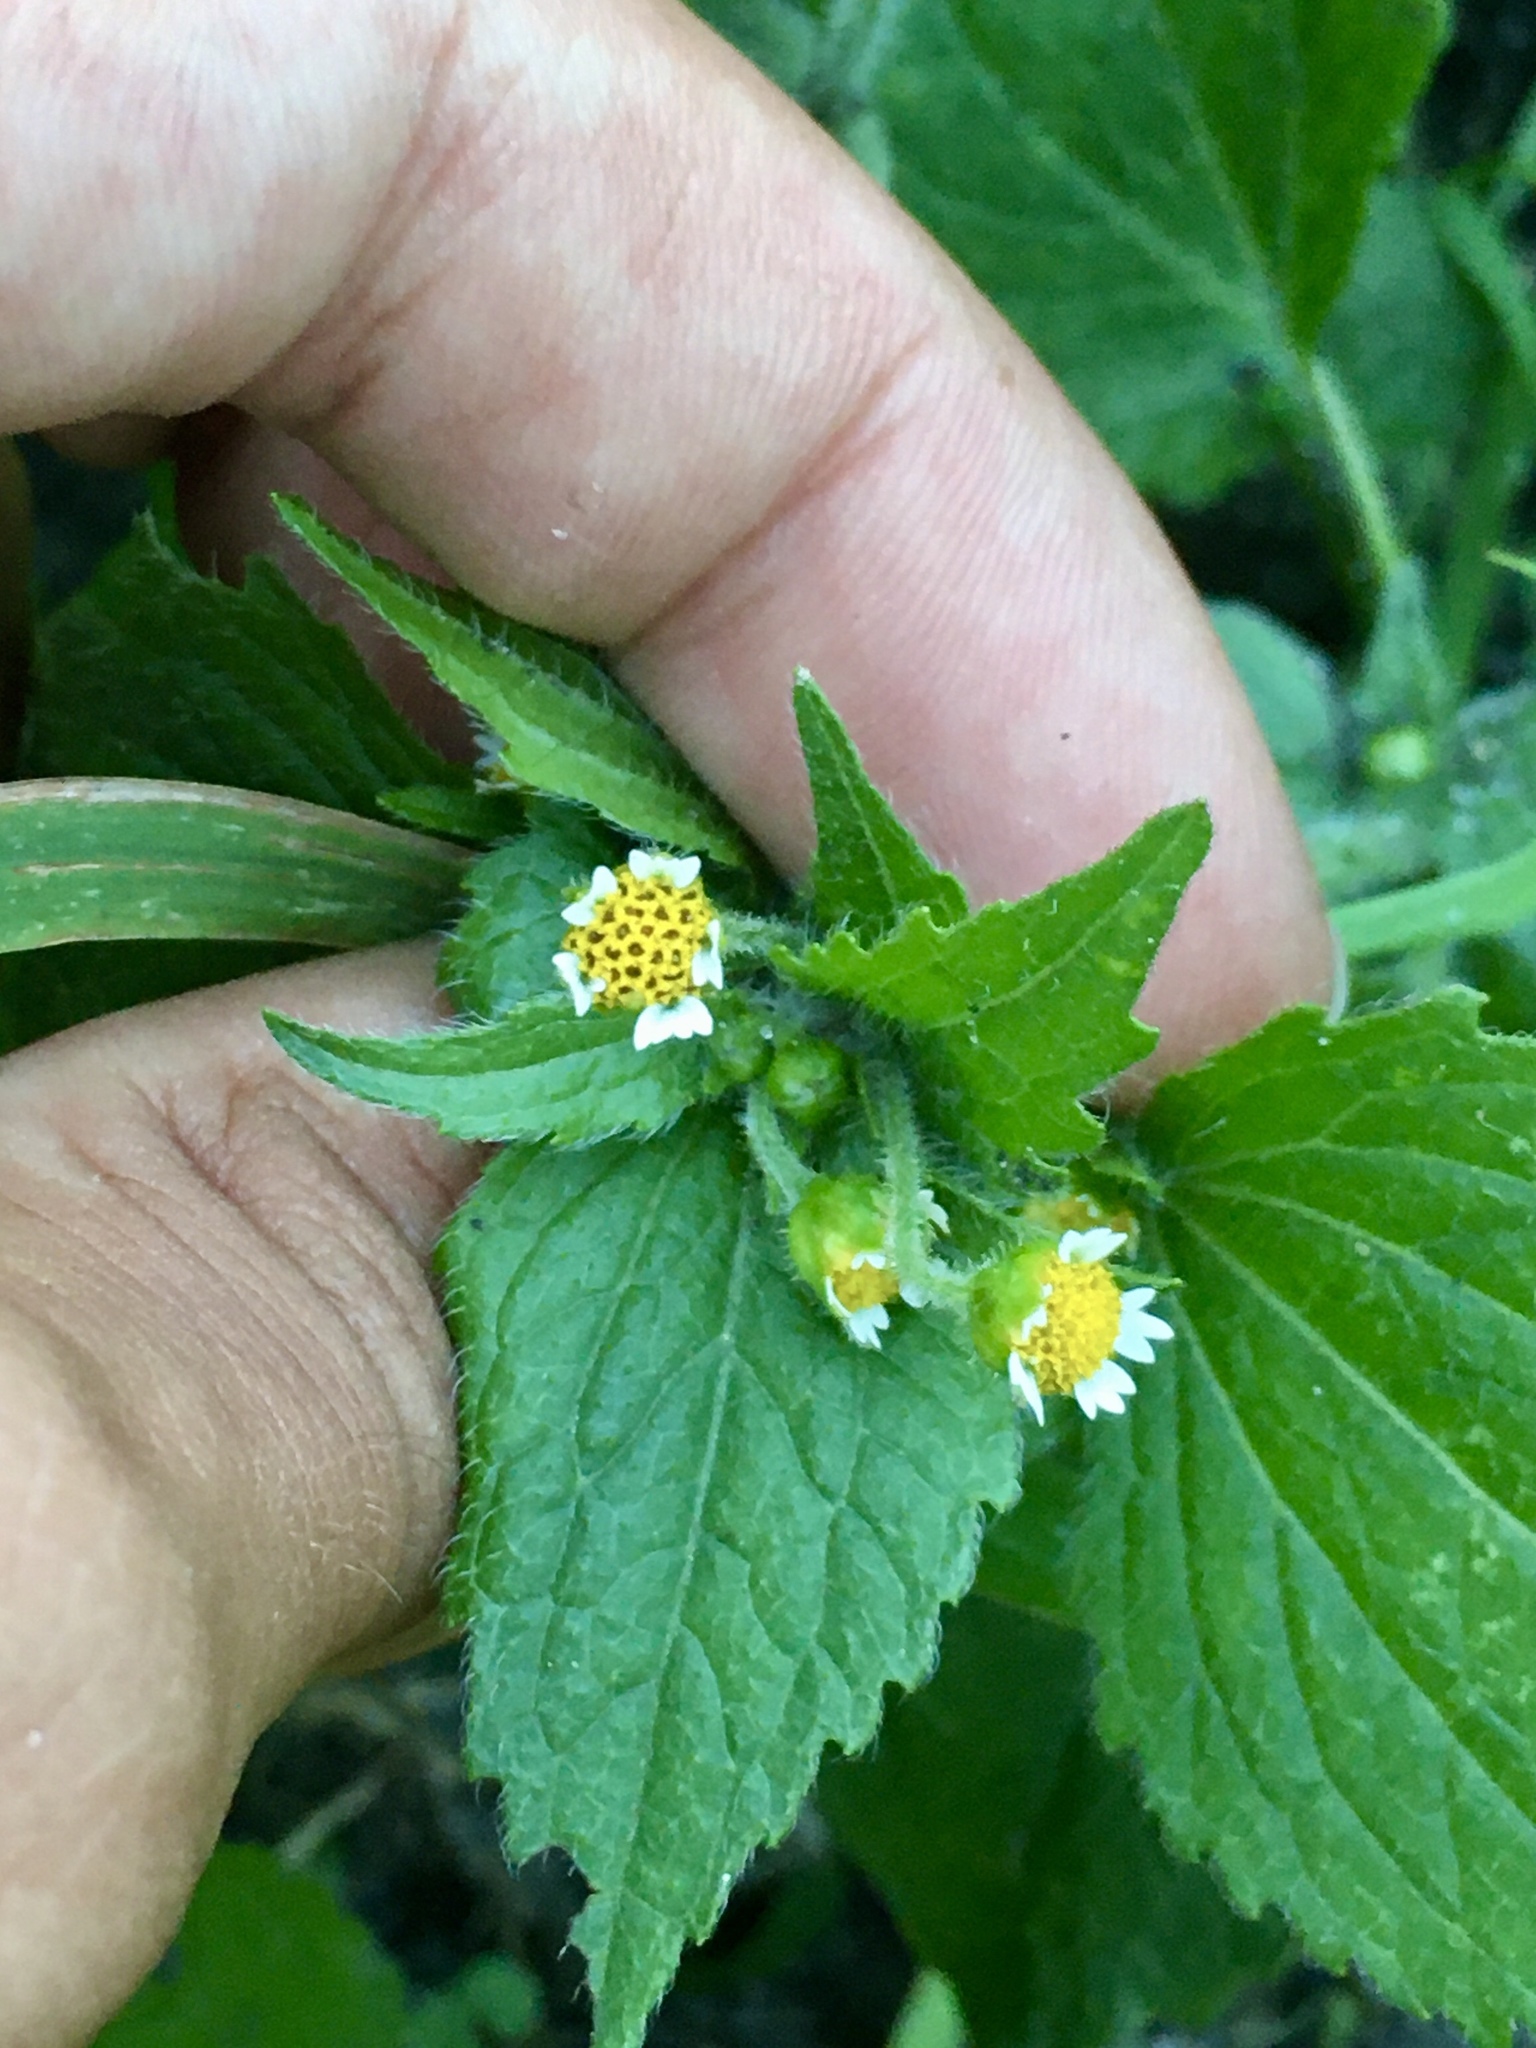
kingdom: Plantae
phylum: Tracheophyta
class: Magnoliopsida
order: Asterales
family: Asteraceae
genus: Galinsoga
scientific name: Galinsoga quadriradiata
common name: Shaggy soldier
